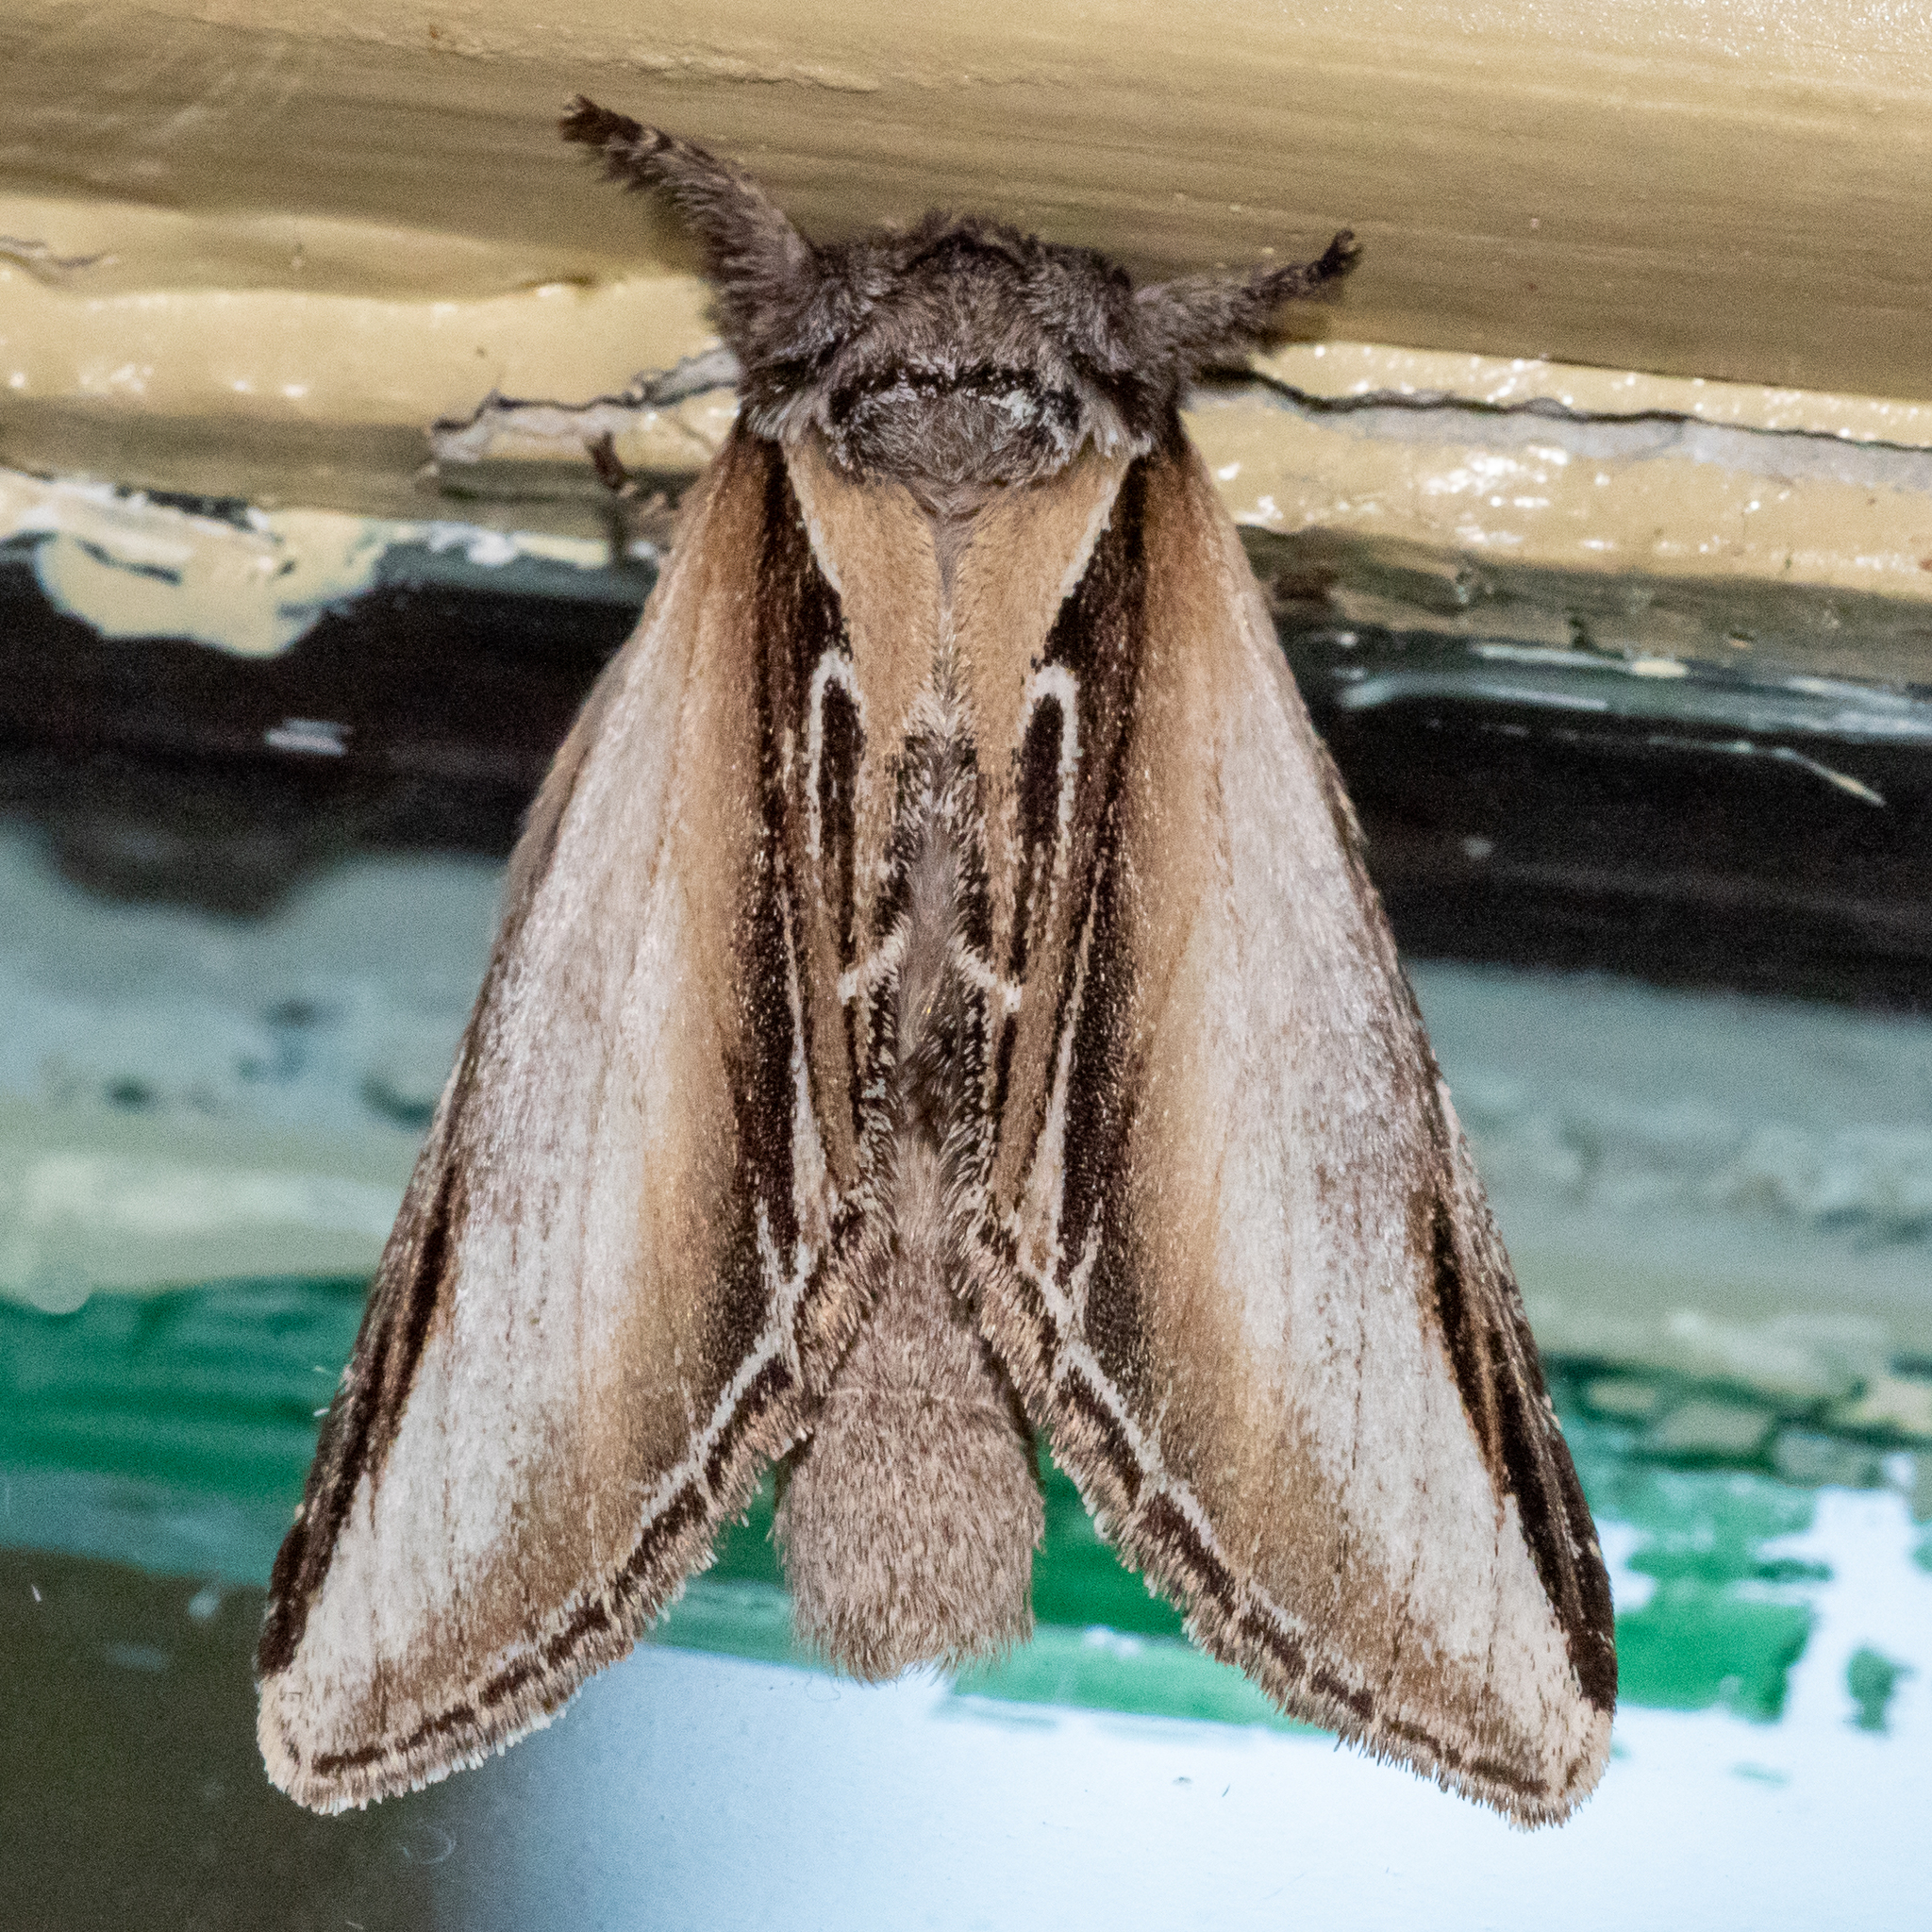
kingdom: Animalia
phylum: Arthropoda
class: Insecta
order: Lepidoptera
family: Notodontidae
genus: Pheosia
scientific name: Pheosia rimosa
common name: Black-rimmed prominent
